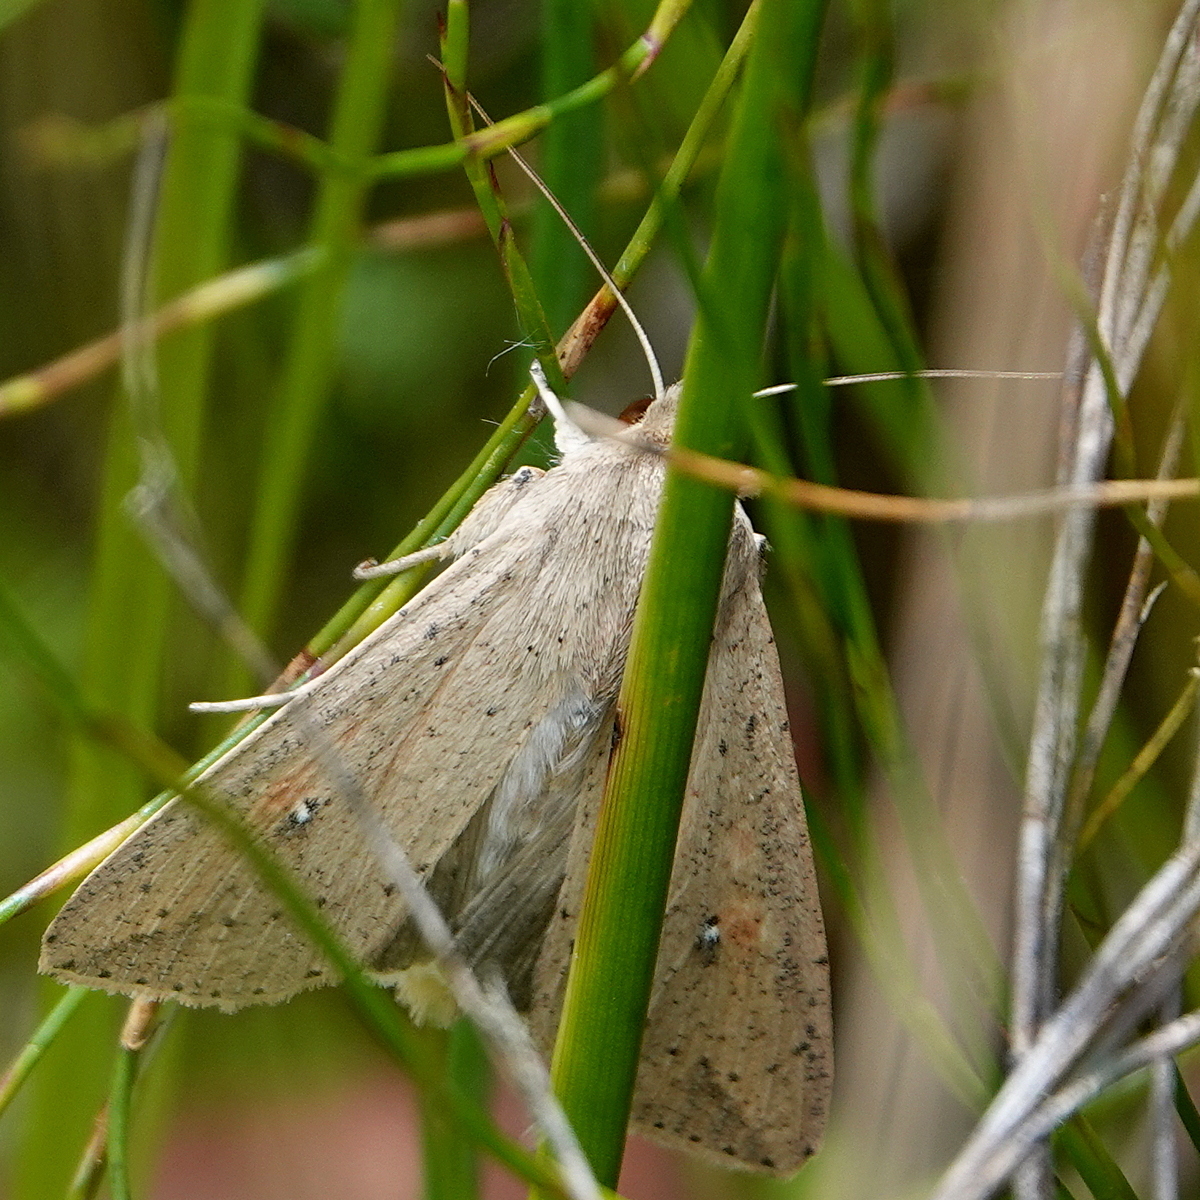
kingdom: Animalia
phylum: Arthropoda
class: Insecta
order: Lepidoptera
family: Noctuidae
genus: Mythimna
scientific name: Mythimna convecta
